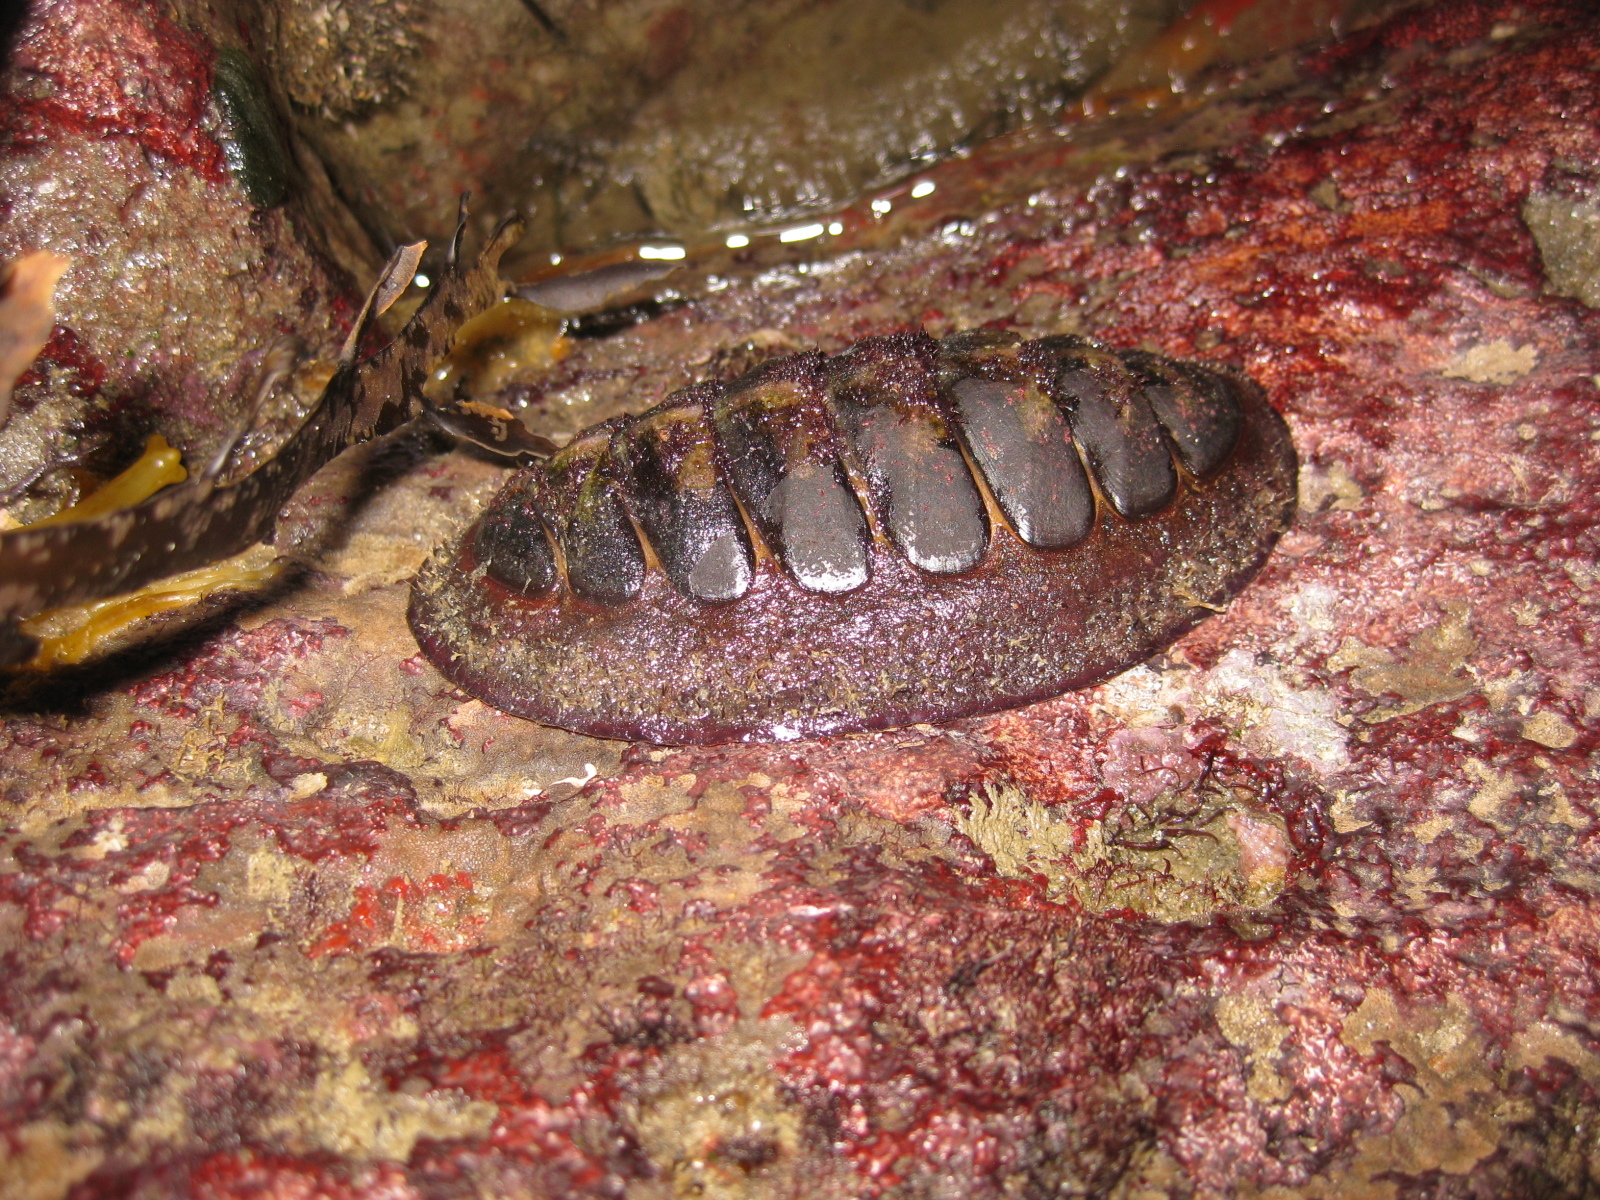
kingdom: Animalia
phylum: Mollusca
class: Polyplacophora
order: Callochitonida
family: Callochitonidae
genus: Eudoxochiton
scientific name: Eudoxochiton nobilis
